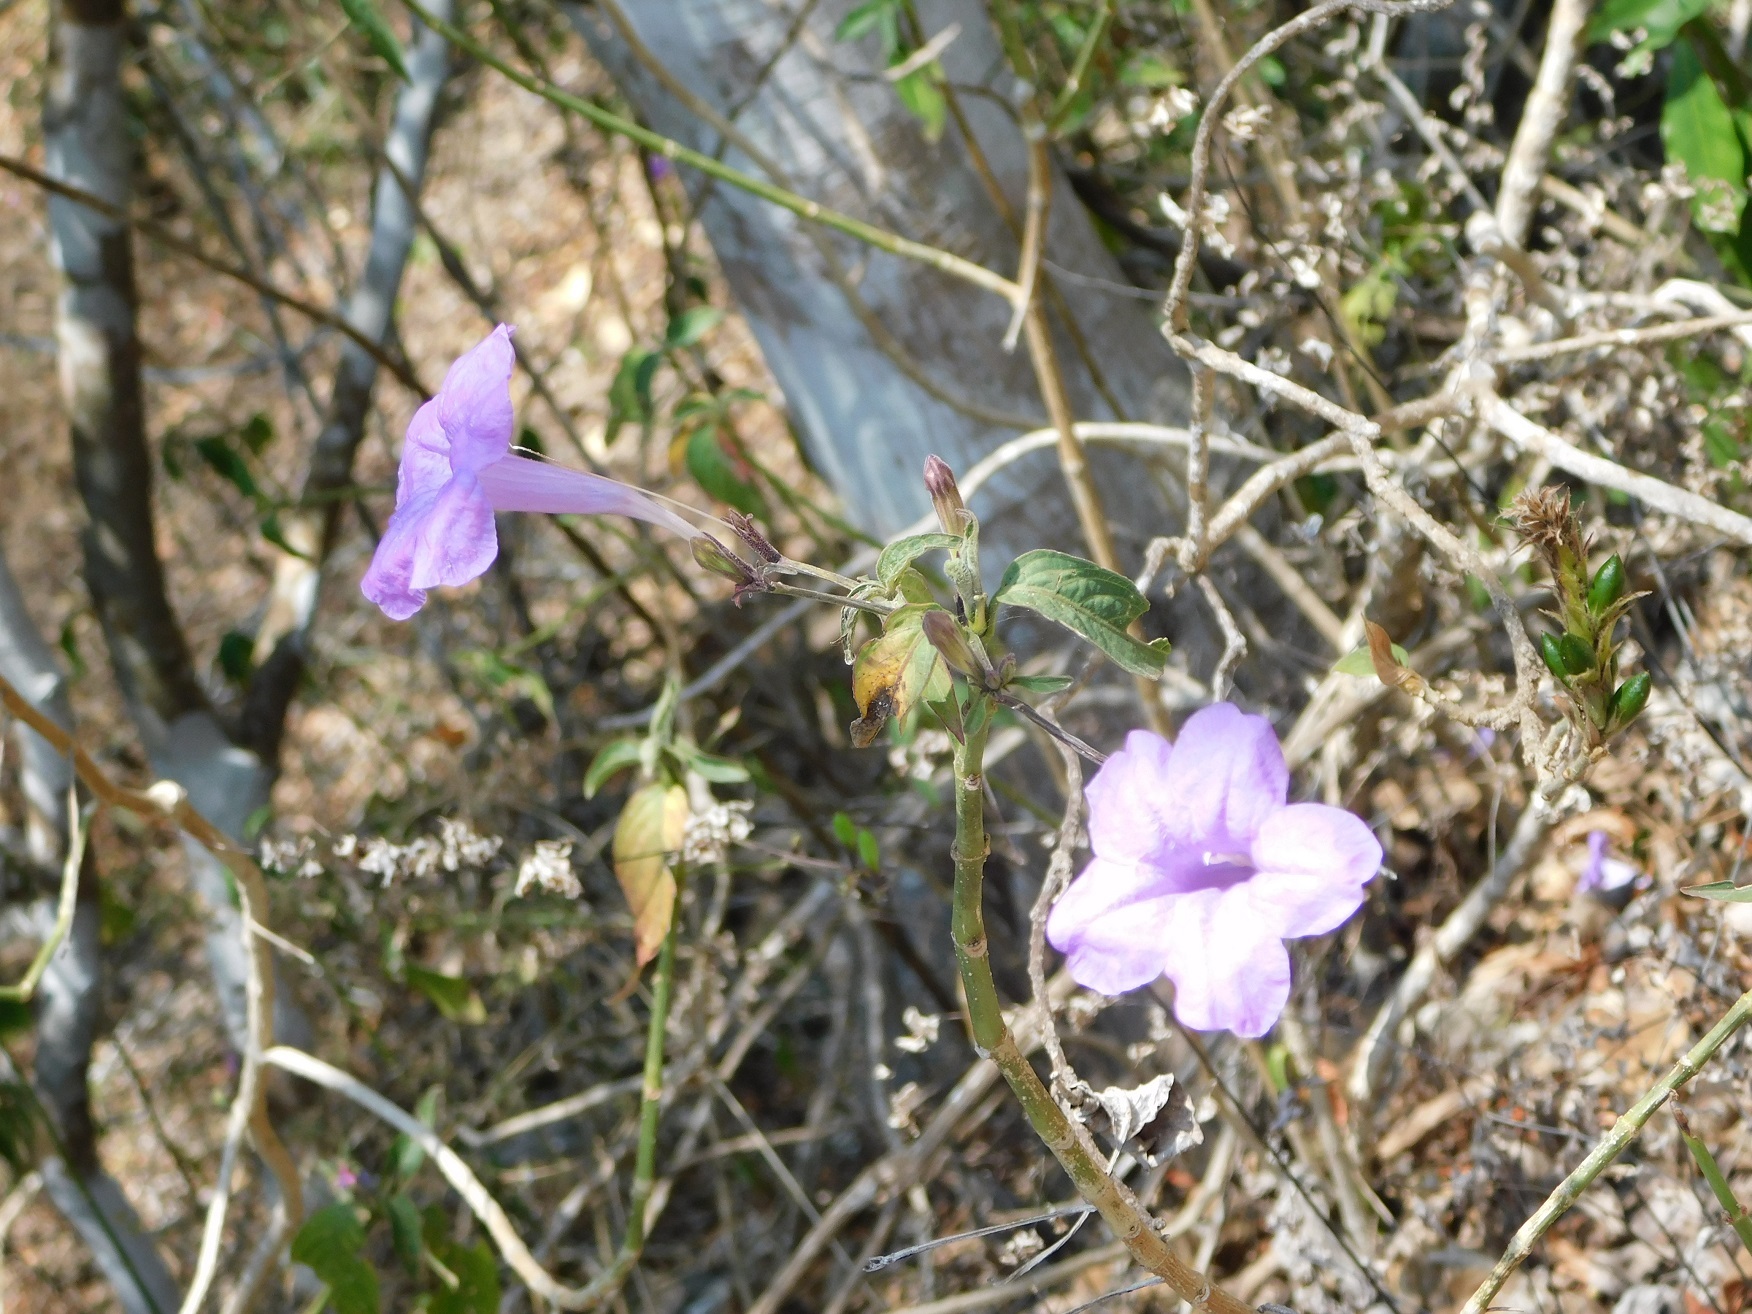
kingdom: Plantae
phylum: Tracheophyta
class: Magnoliopsida
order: Lamiales
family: Acanthaceae
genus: Ruellia
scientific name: Ruellia breedlovei
